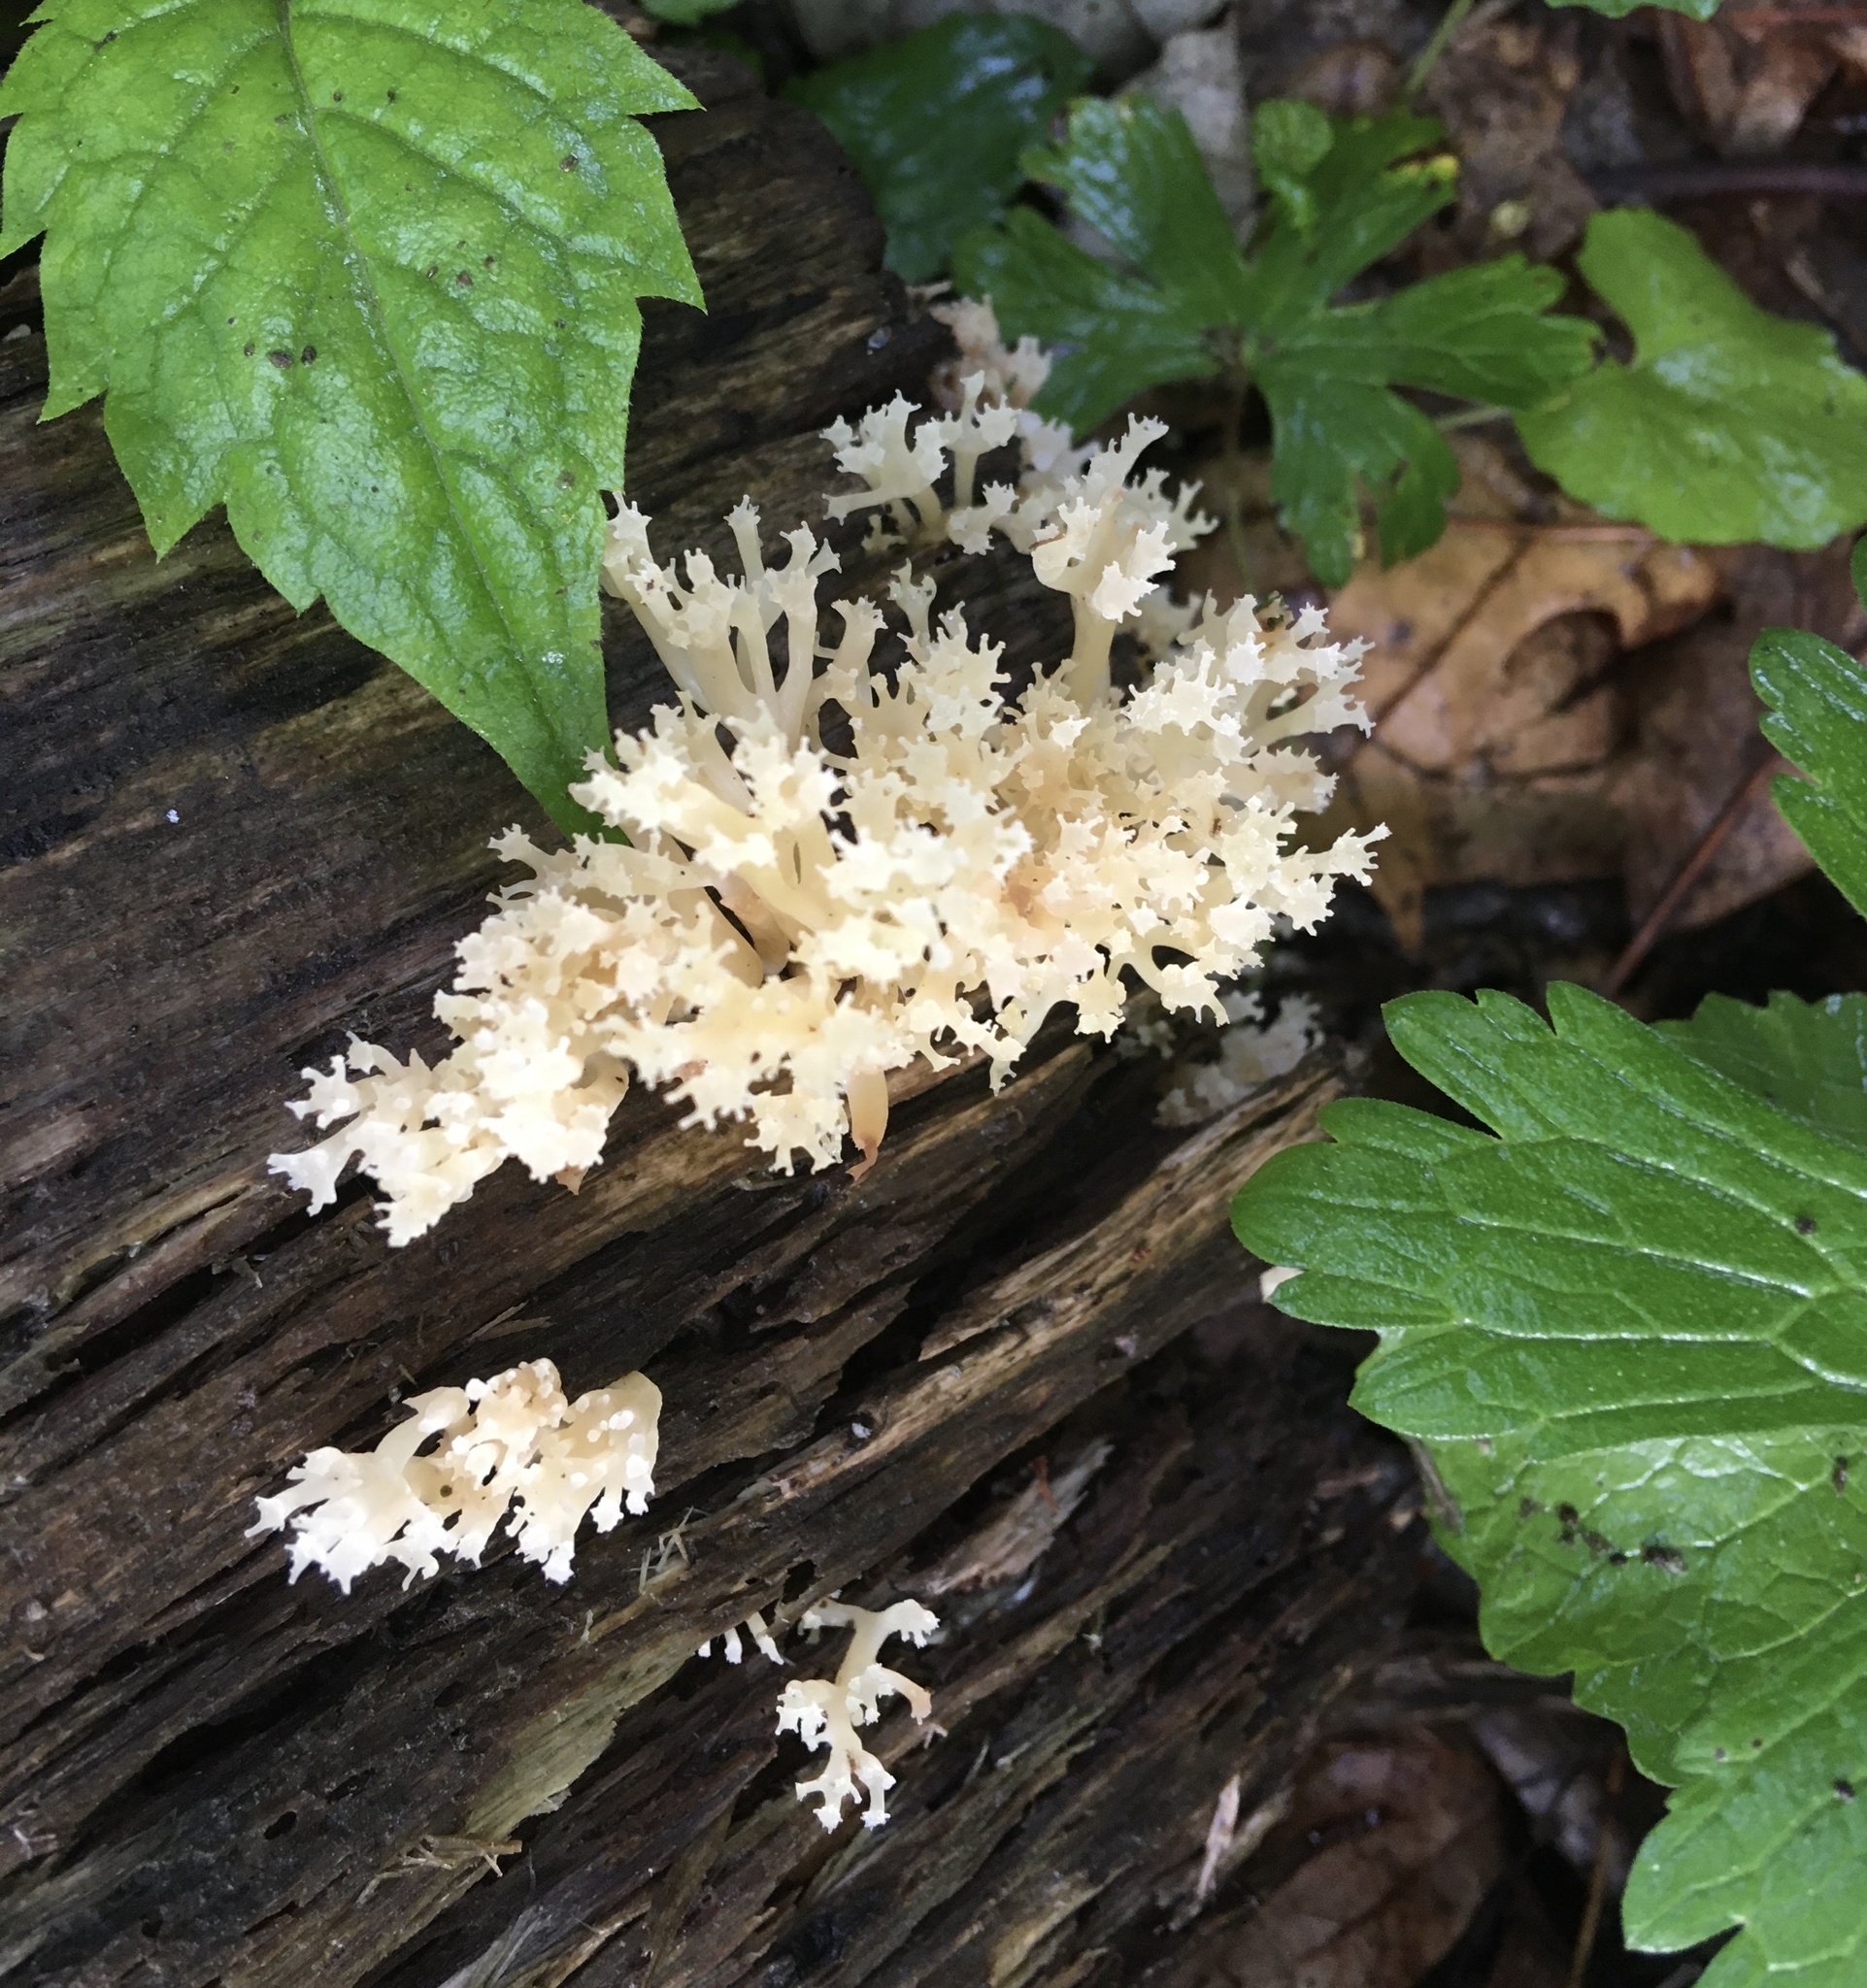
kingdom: Fungi
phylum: Basidiomycota
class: Agaricomycetes
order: Russulales
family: Auriscalpiaceae
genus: Artomyces
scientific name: Artomyces pyxidatus
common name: Crown-tipped coral fungus
